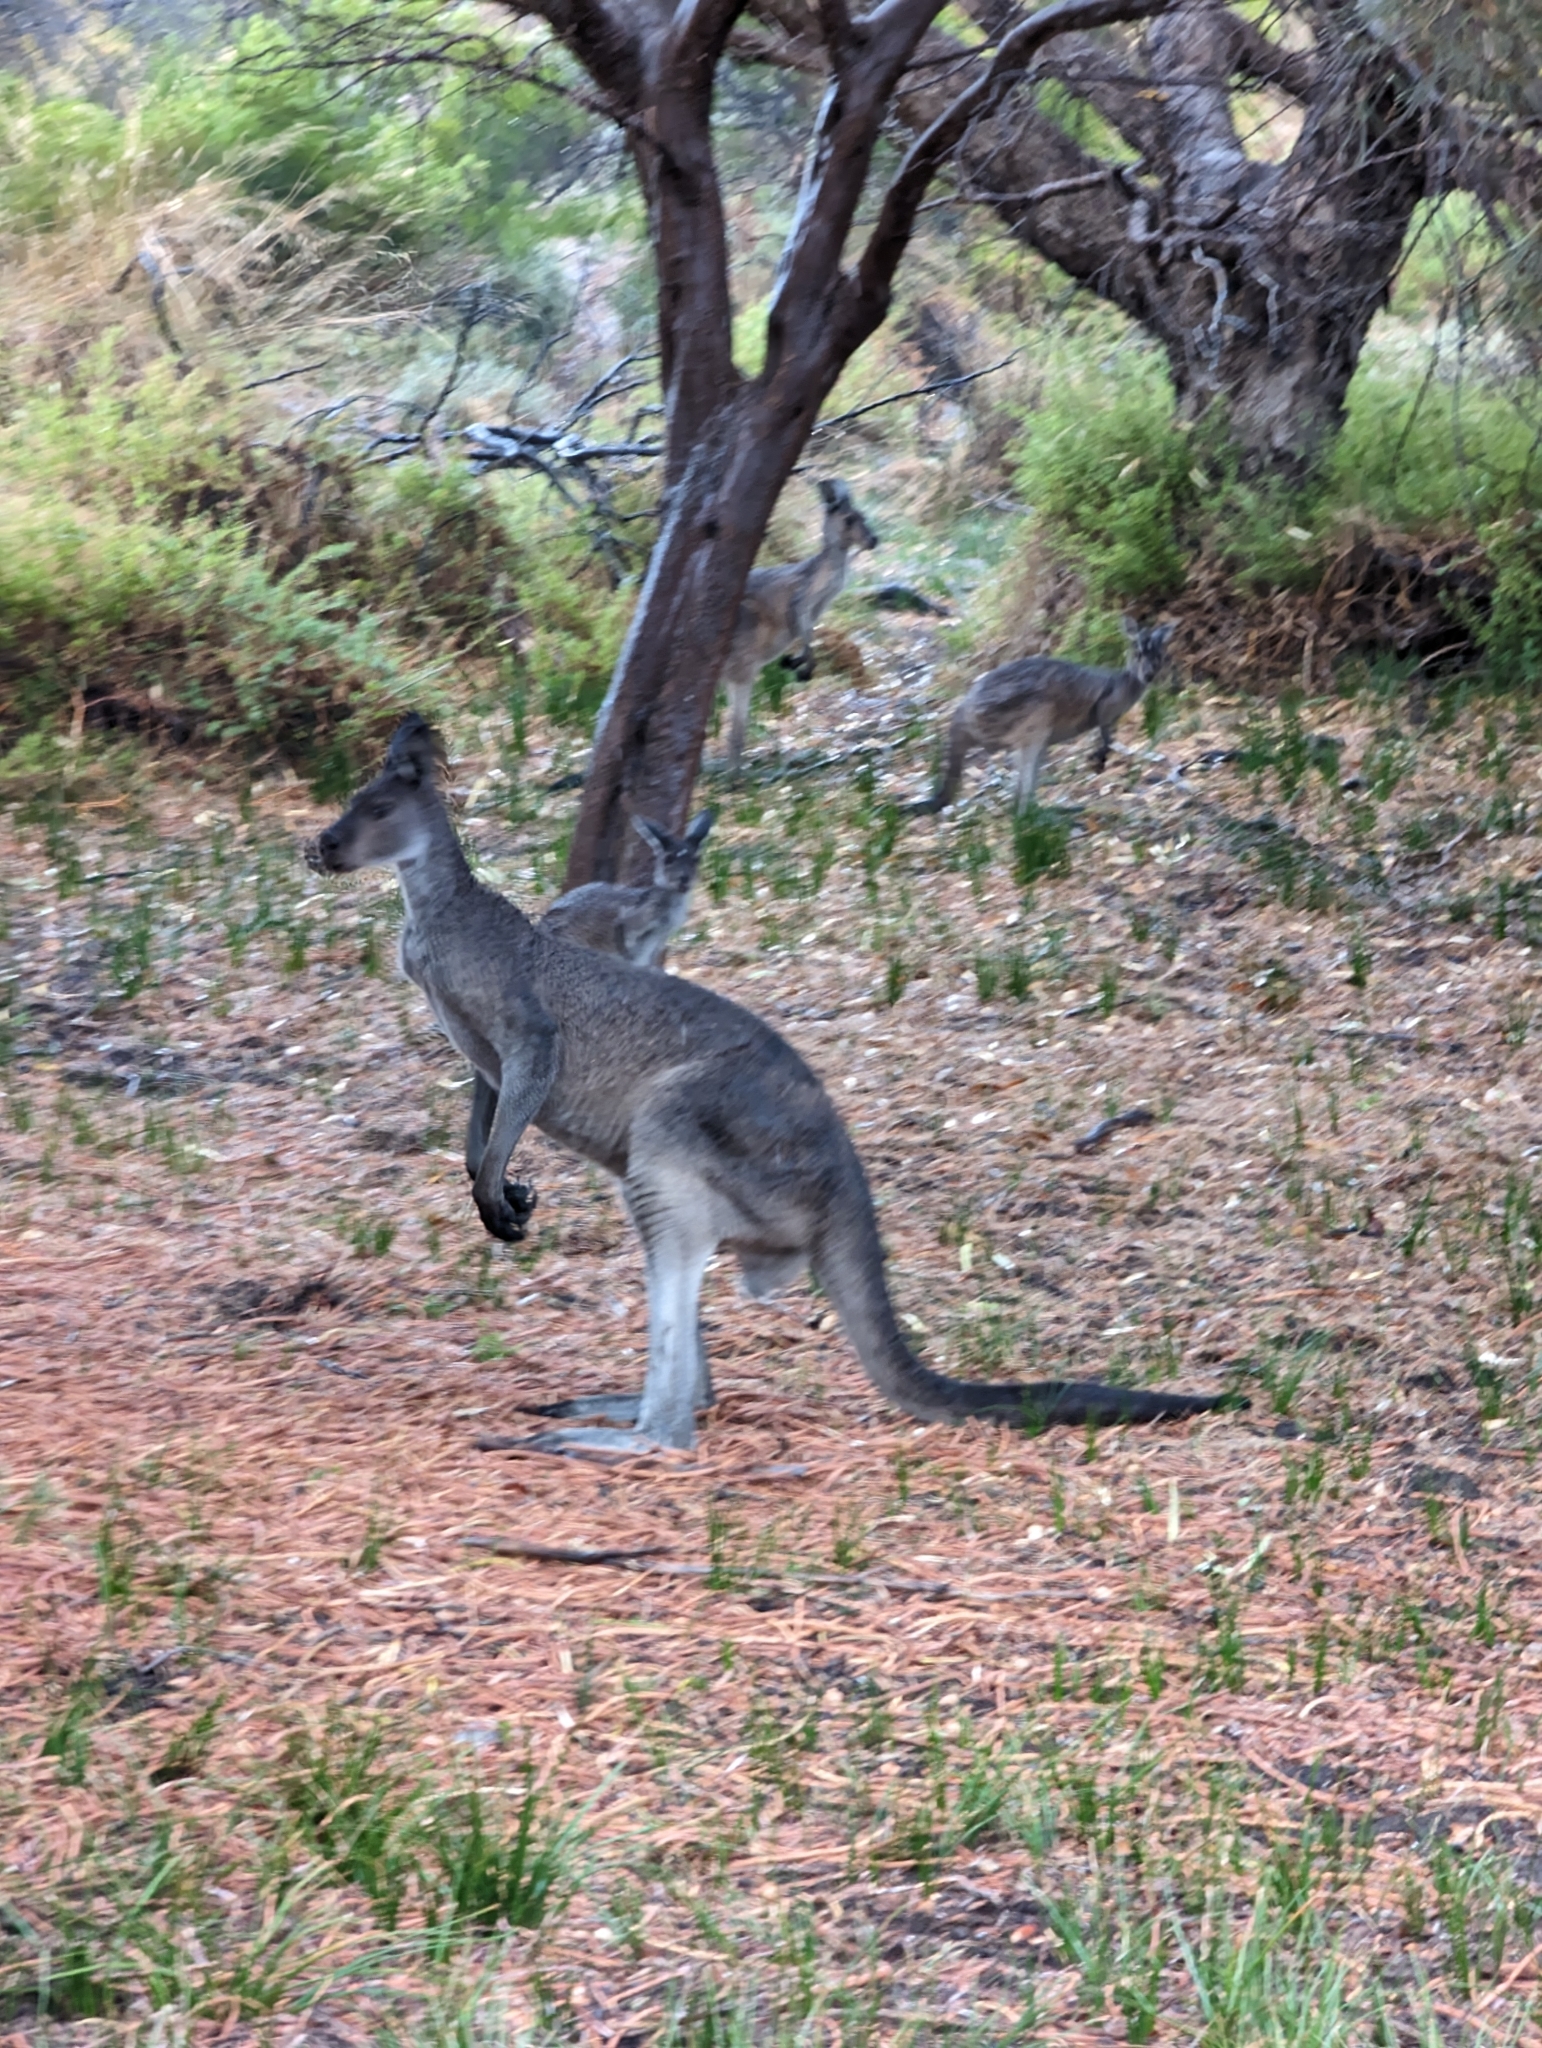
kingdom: Animalia
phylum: Chordata
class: Mammalia
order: Diprotodontia
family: Macropodidae
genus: Macropus
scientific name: Macropus fuliginosus
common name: Western grey kangaroo
